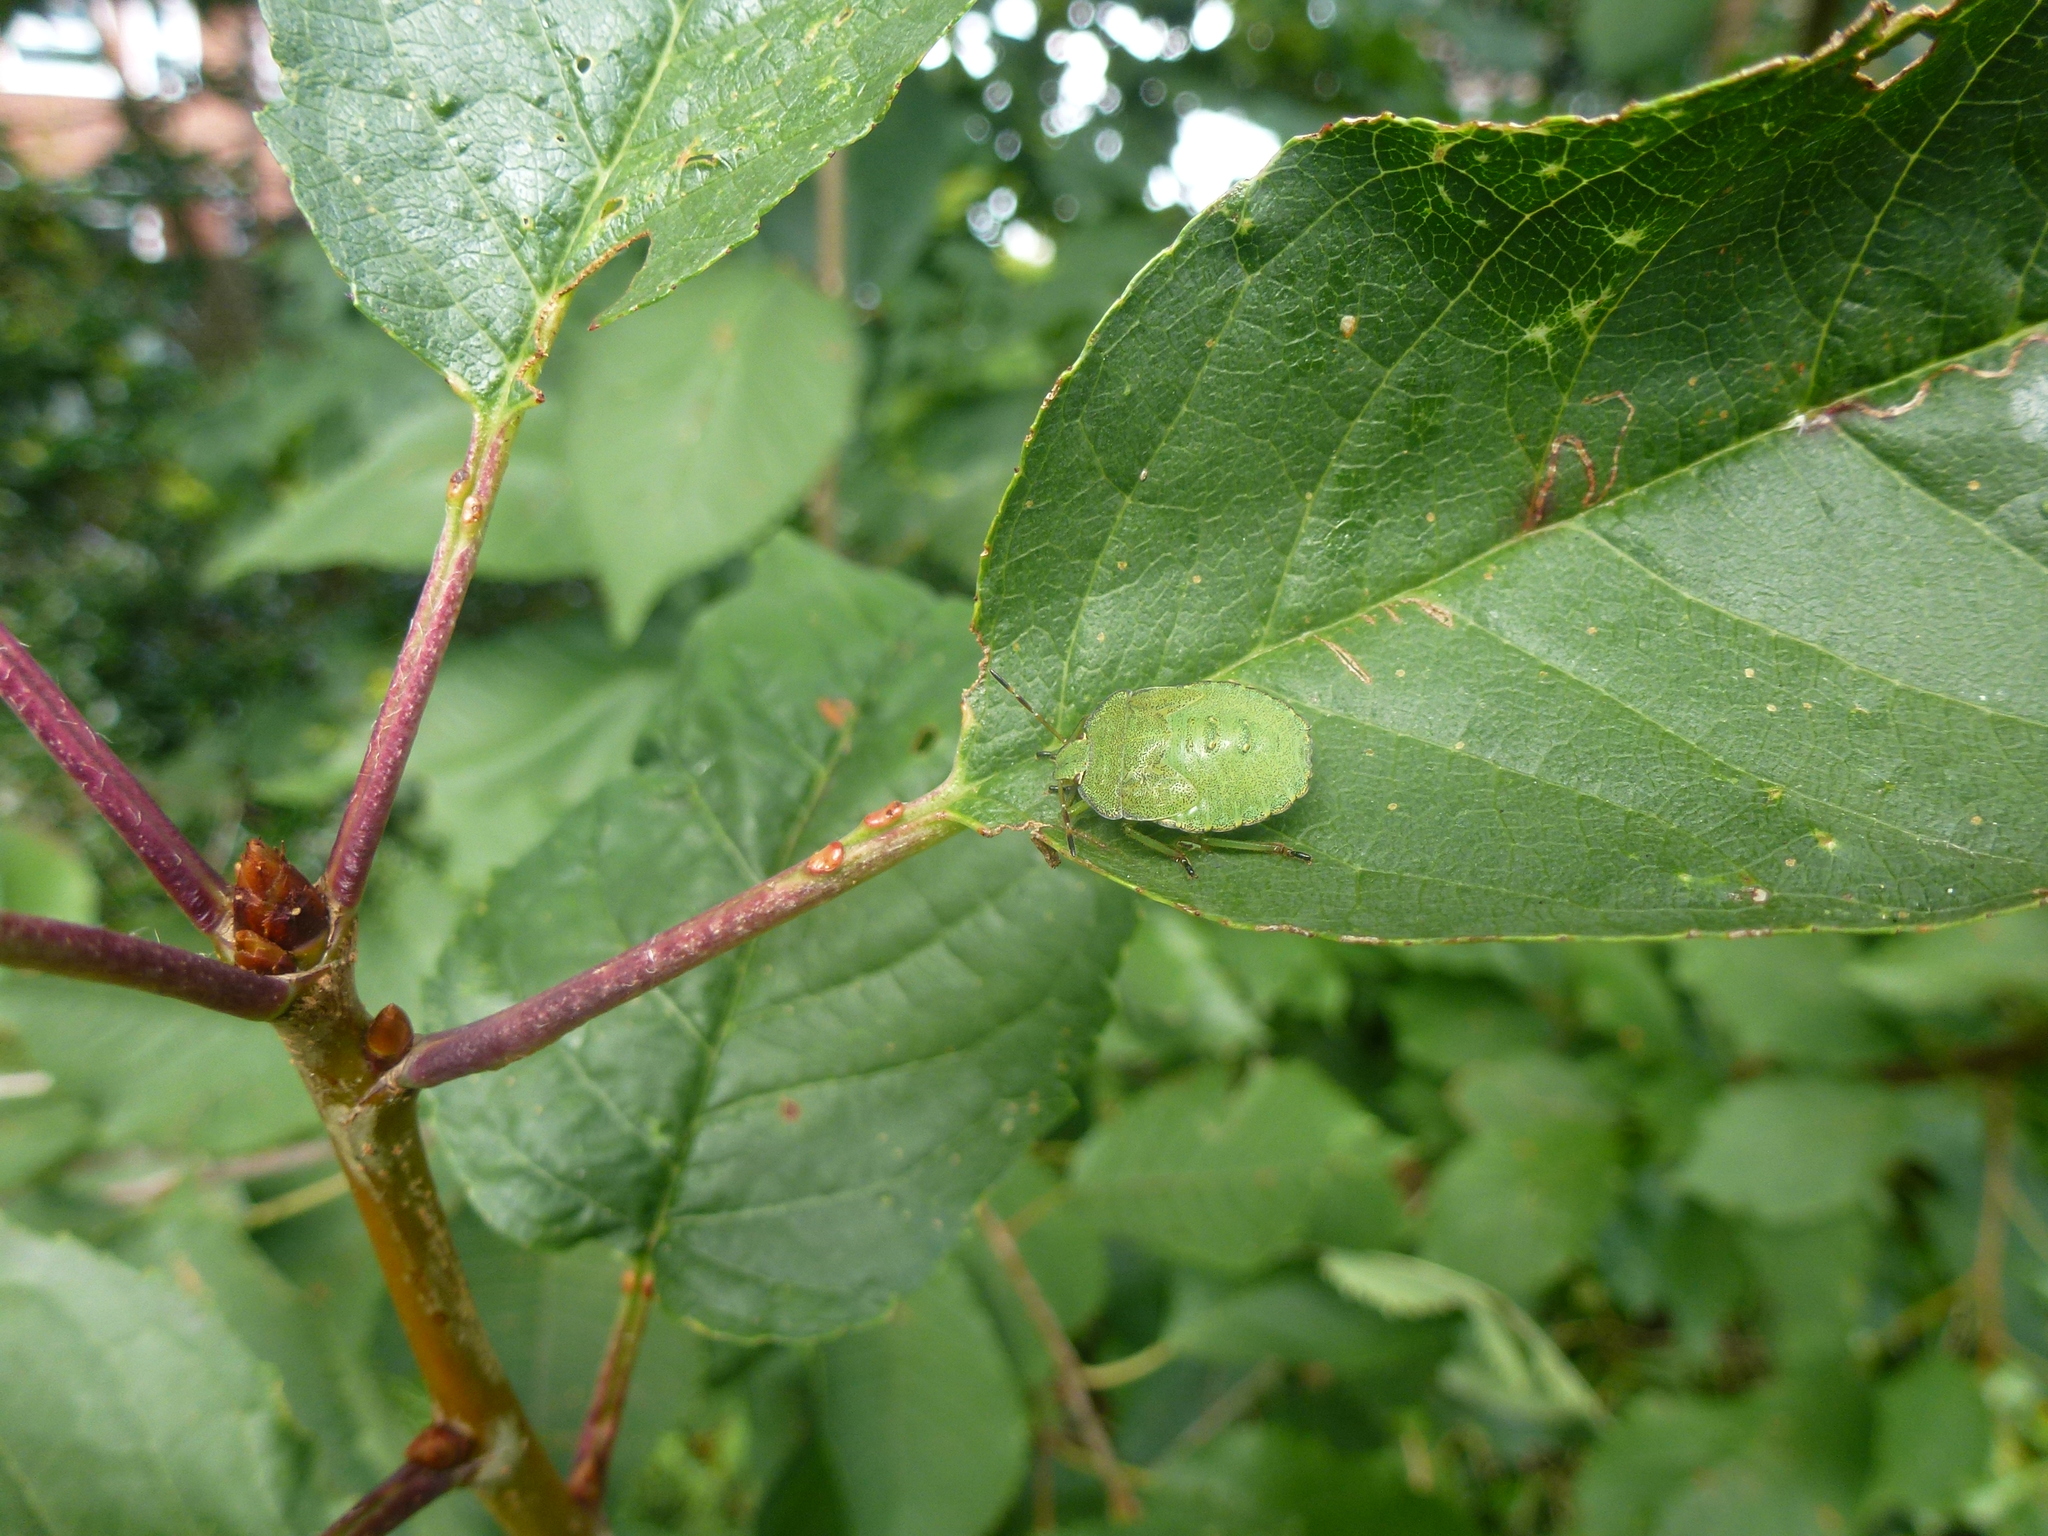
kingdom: Animalia
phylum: Arthropoda
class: Insecta
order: Hemiptera
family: Pentatomidae
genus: Palomena
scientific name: Palomena prasina
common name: Green shieldbug
